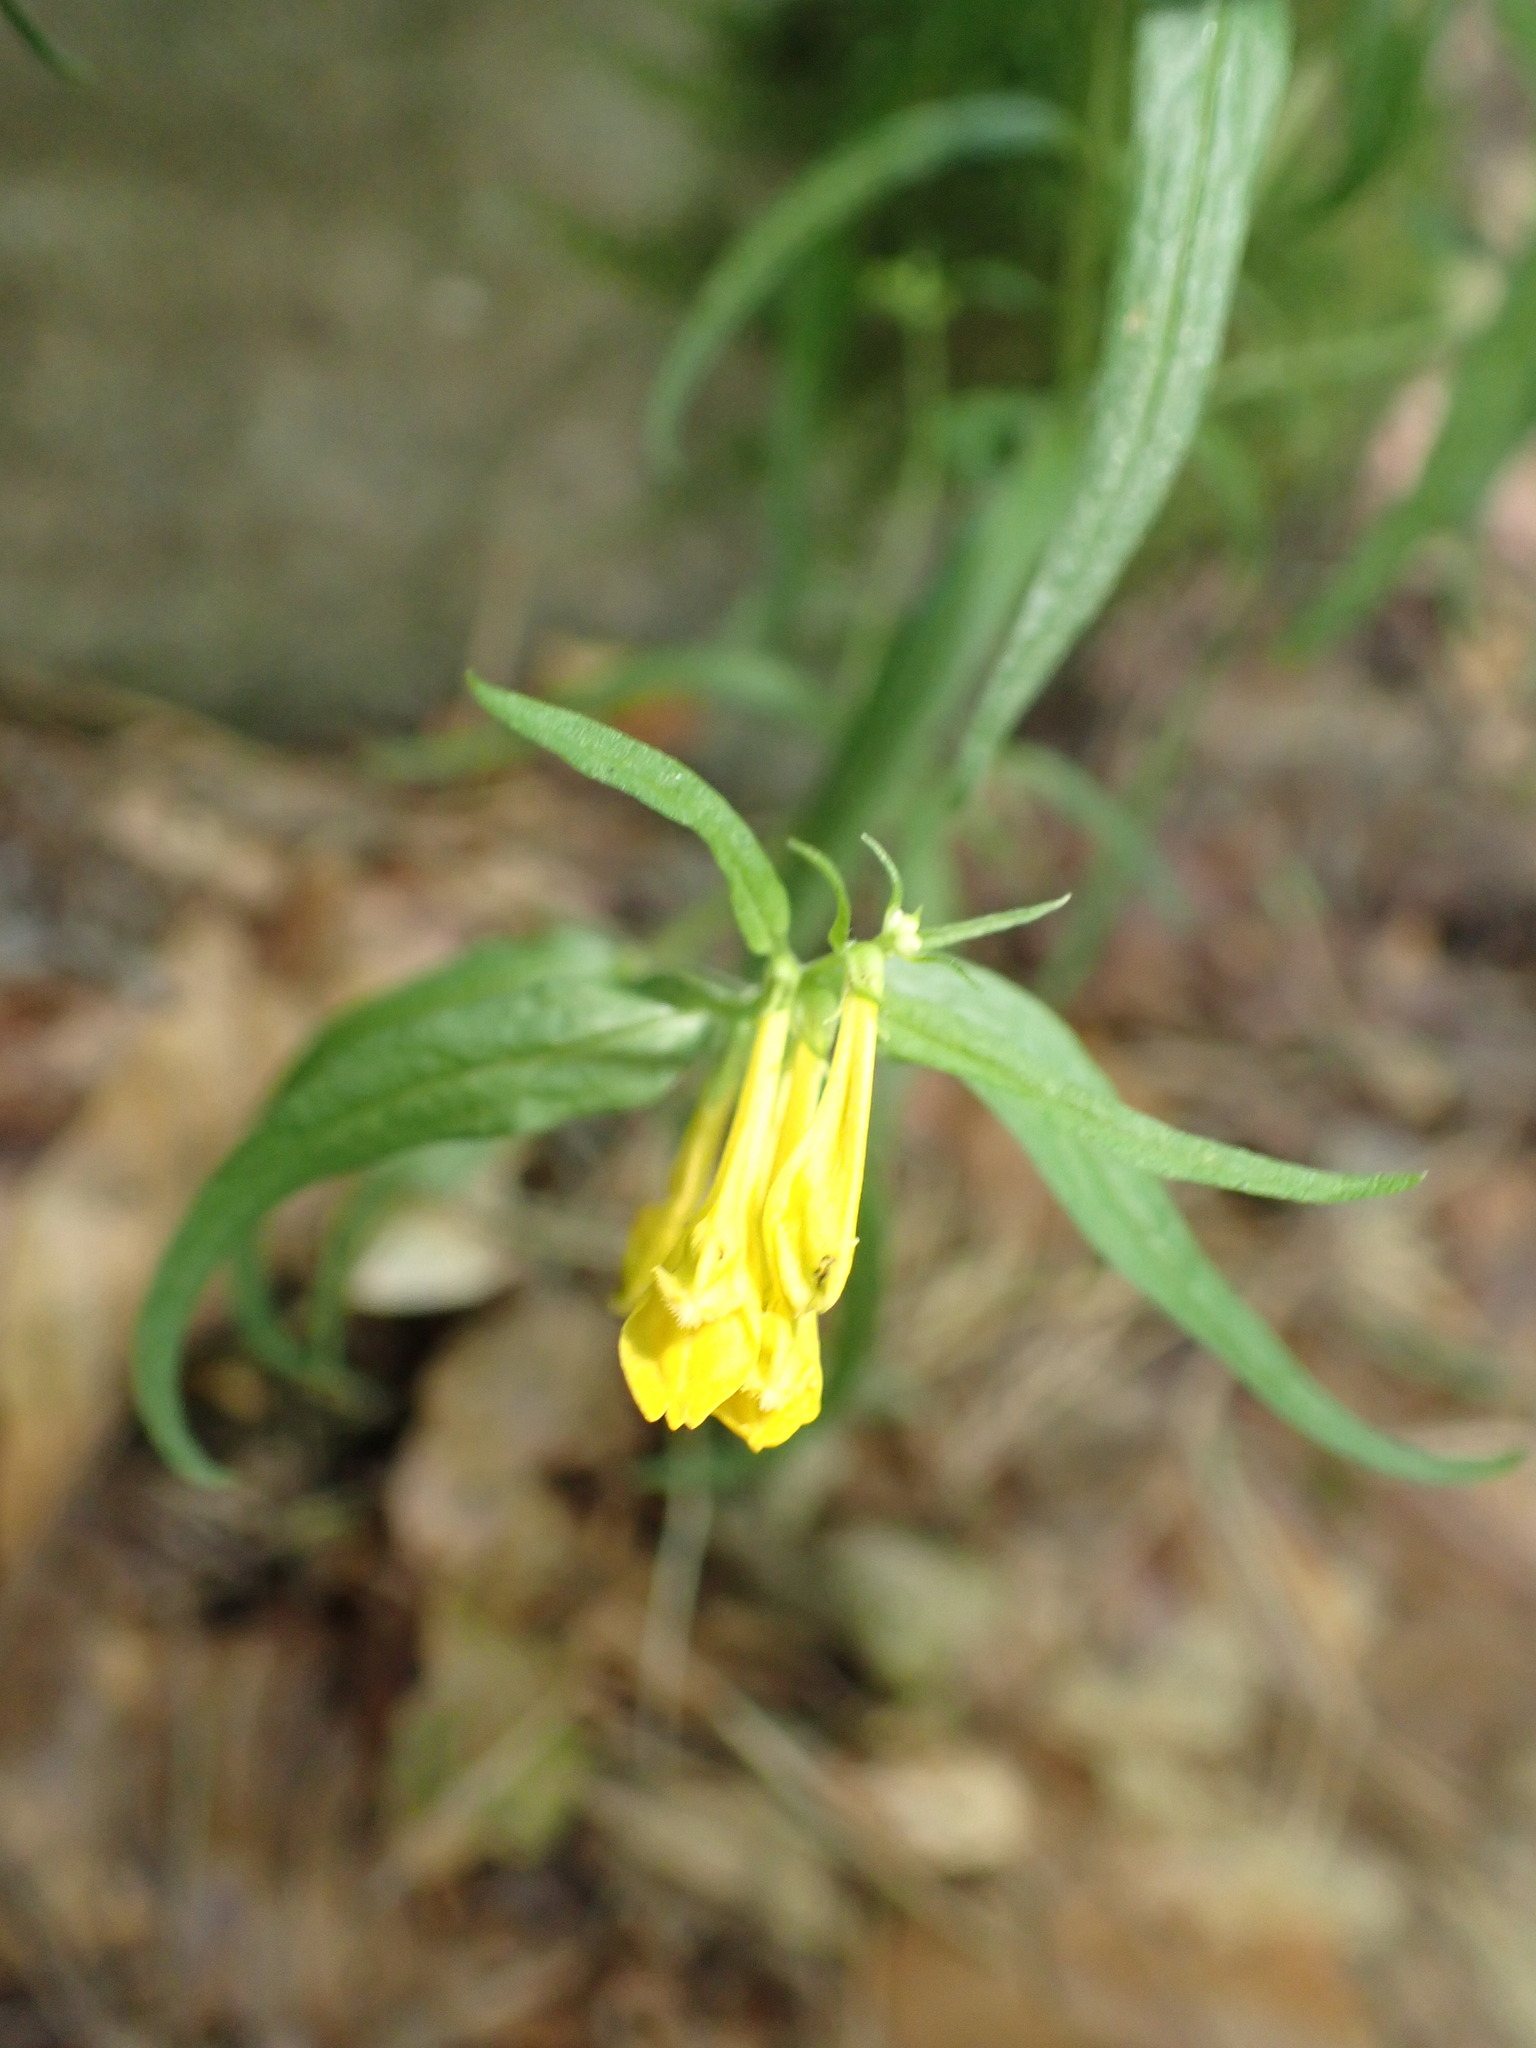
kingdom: Plantae
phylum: Tracheophyta
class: Magnoliopsida
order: Lamiales
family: Orobanchaceae
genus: Melampyrum
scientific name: Melampyrum pratense
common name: Common cow-wheat
